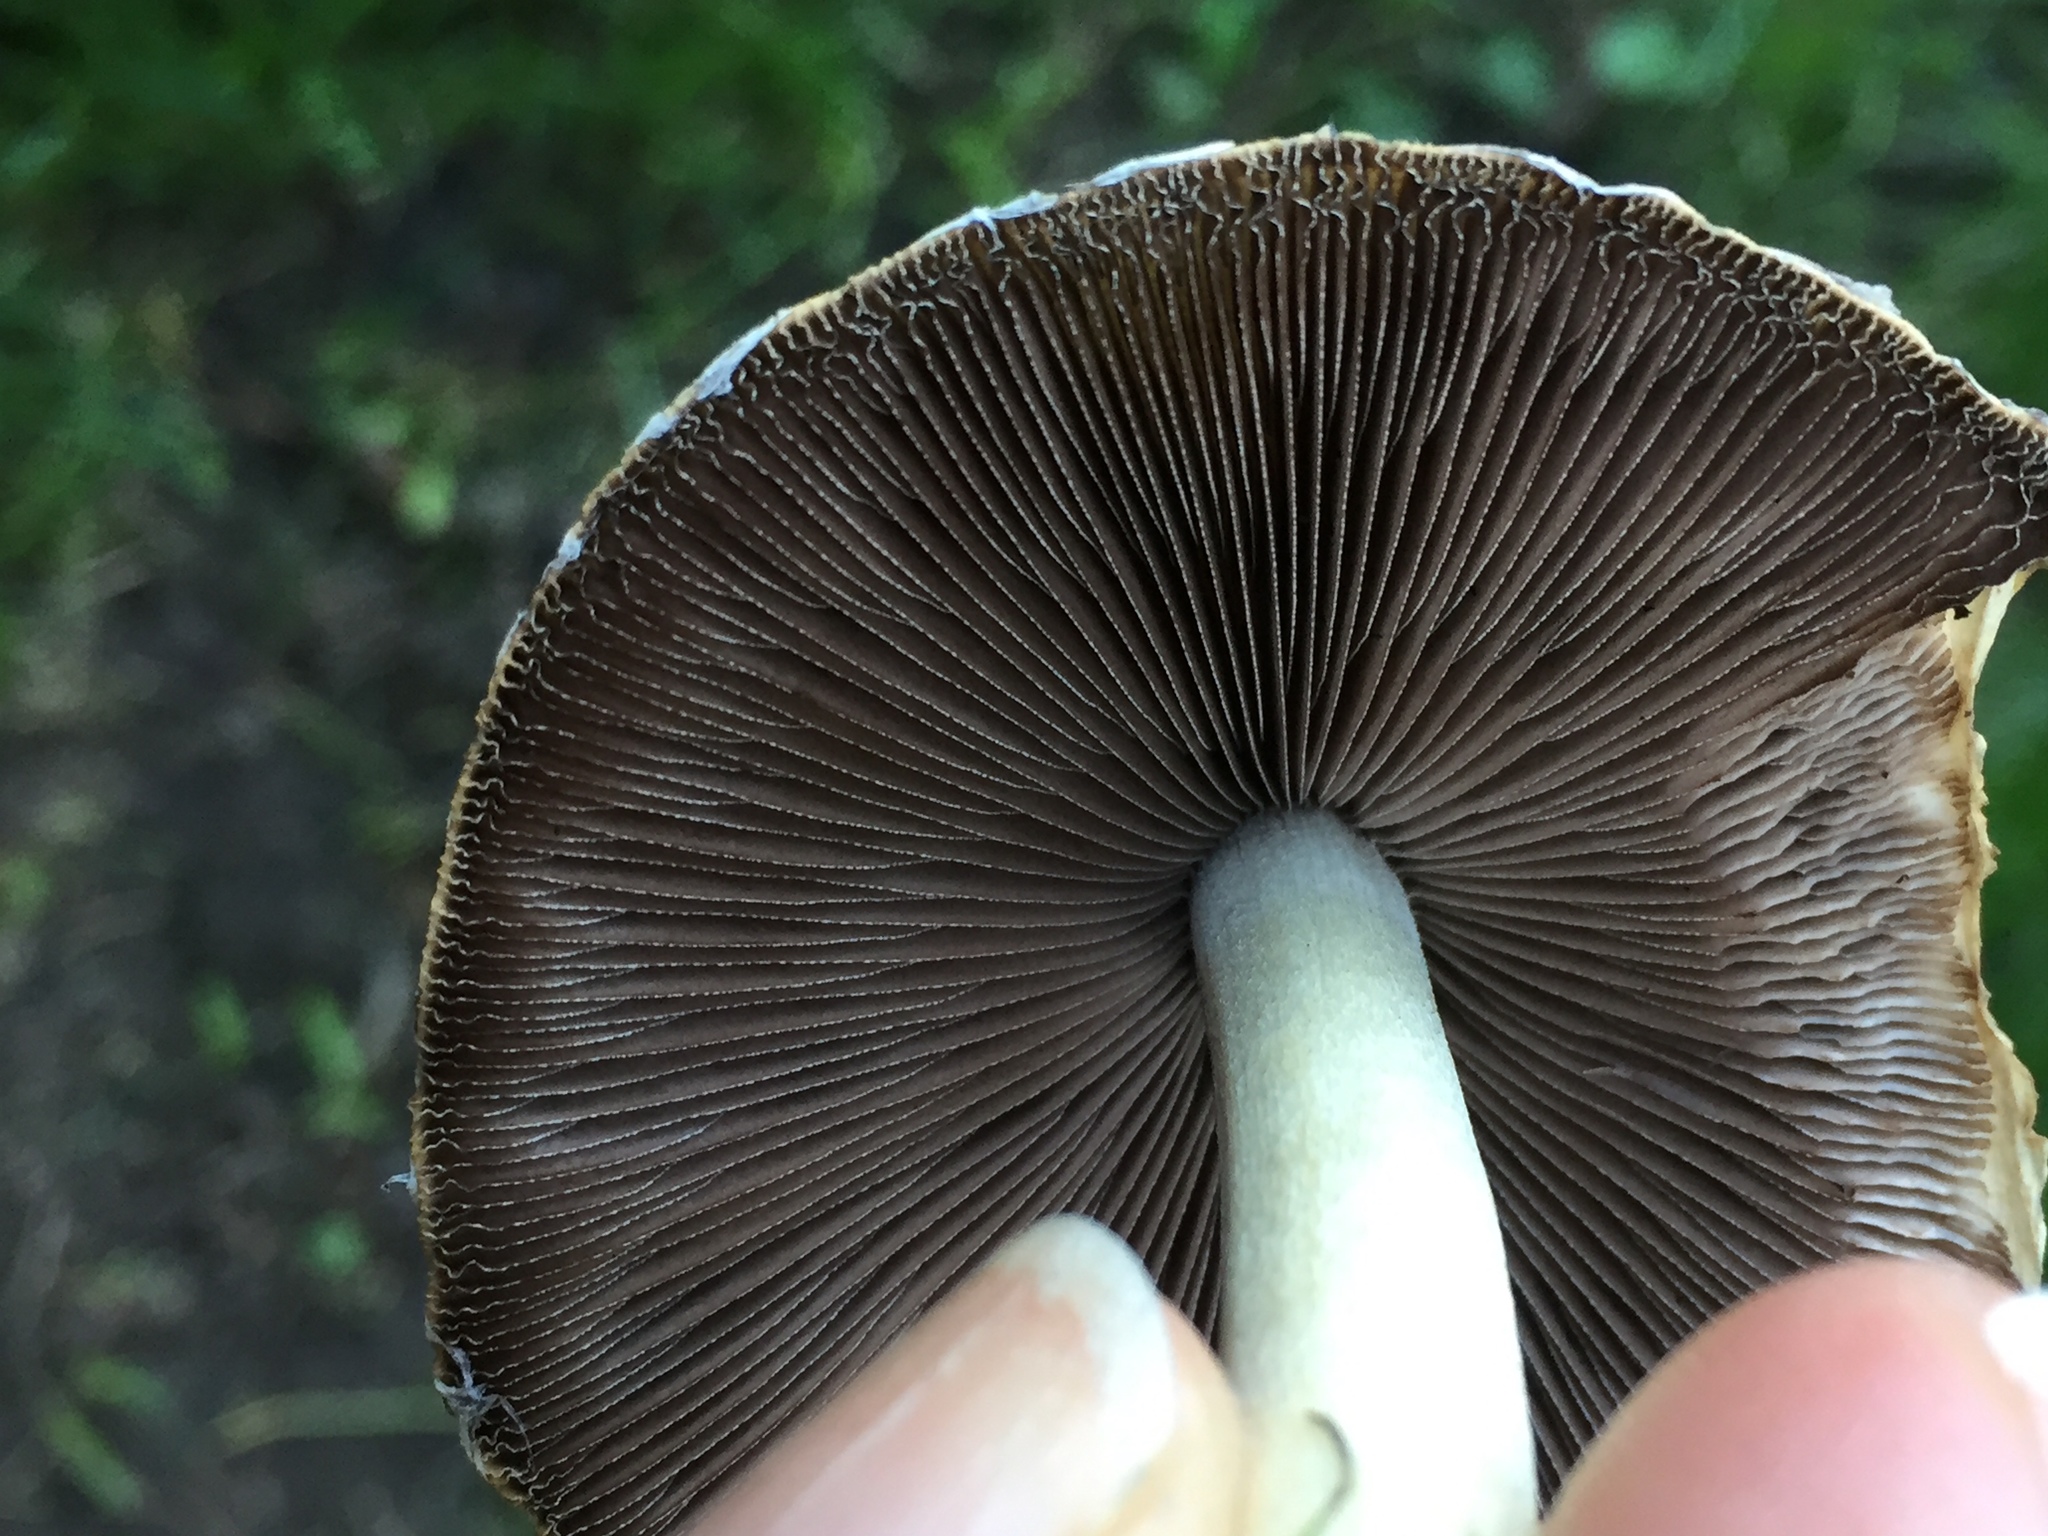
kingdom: Fungi
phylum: Basidiomycota
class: Agaricomycetes
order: Agaricales
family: Psathyrellaceae
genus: Candolleomyces
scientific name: Candolleomyces candolleanus
